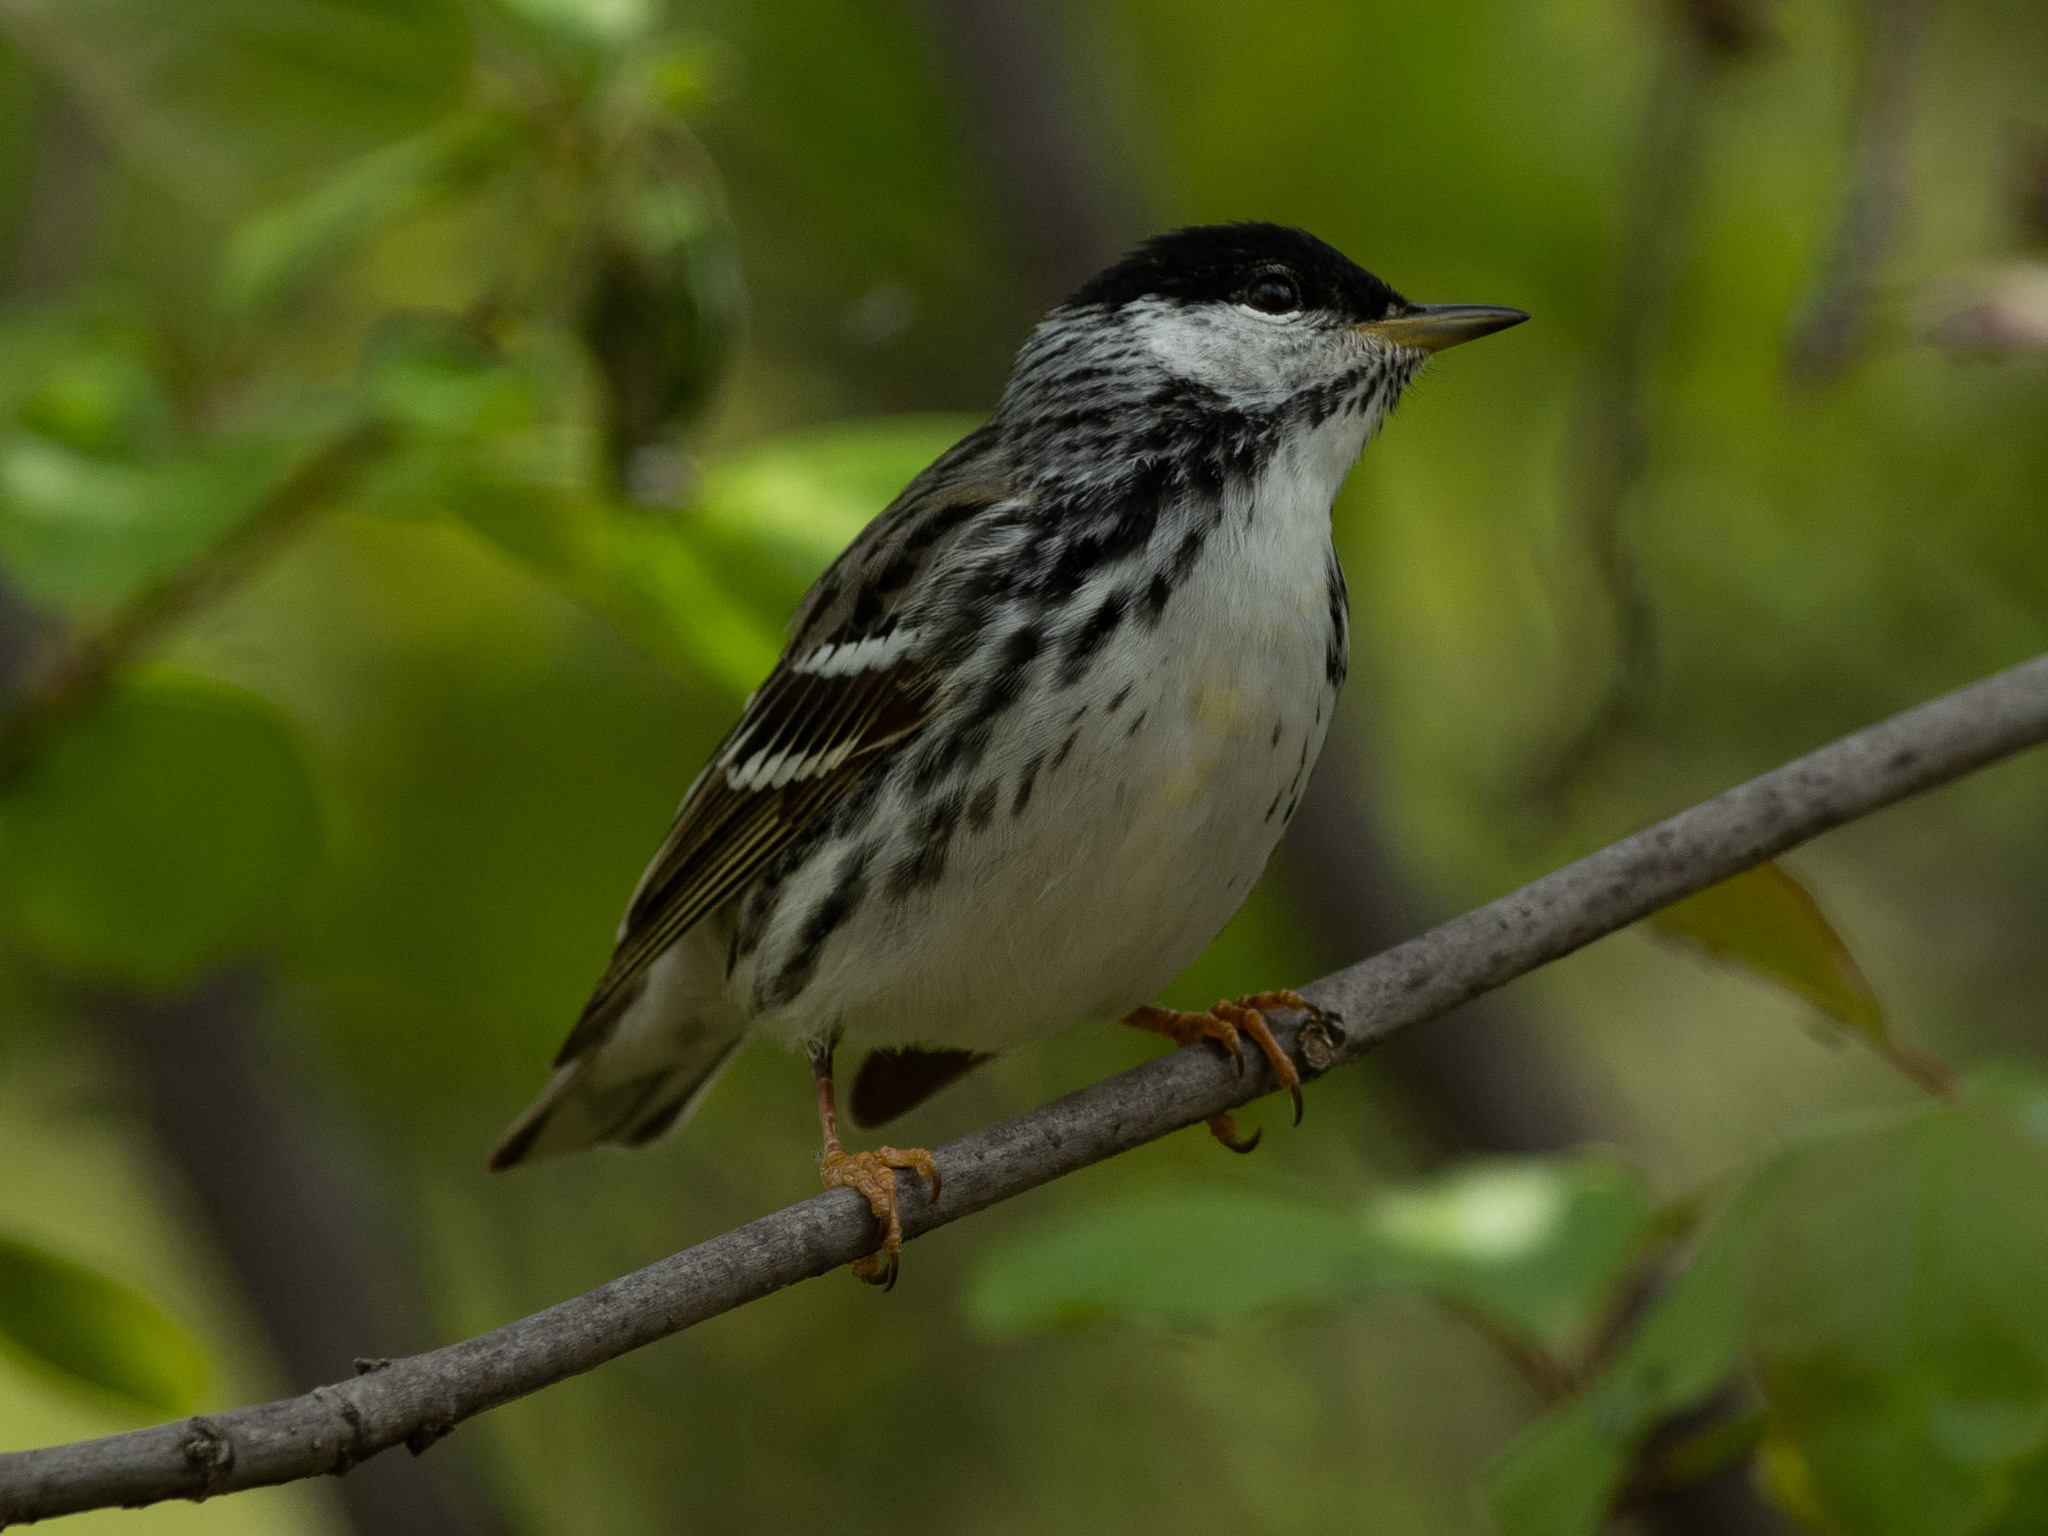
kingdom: Animalia
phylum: Chordata
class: Aves
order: Passeriformes
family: Parulidae
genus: Setophaga
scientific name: Setophaga striata
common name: Blackpoll warbler
